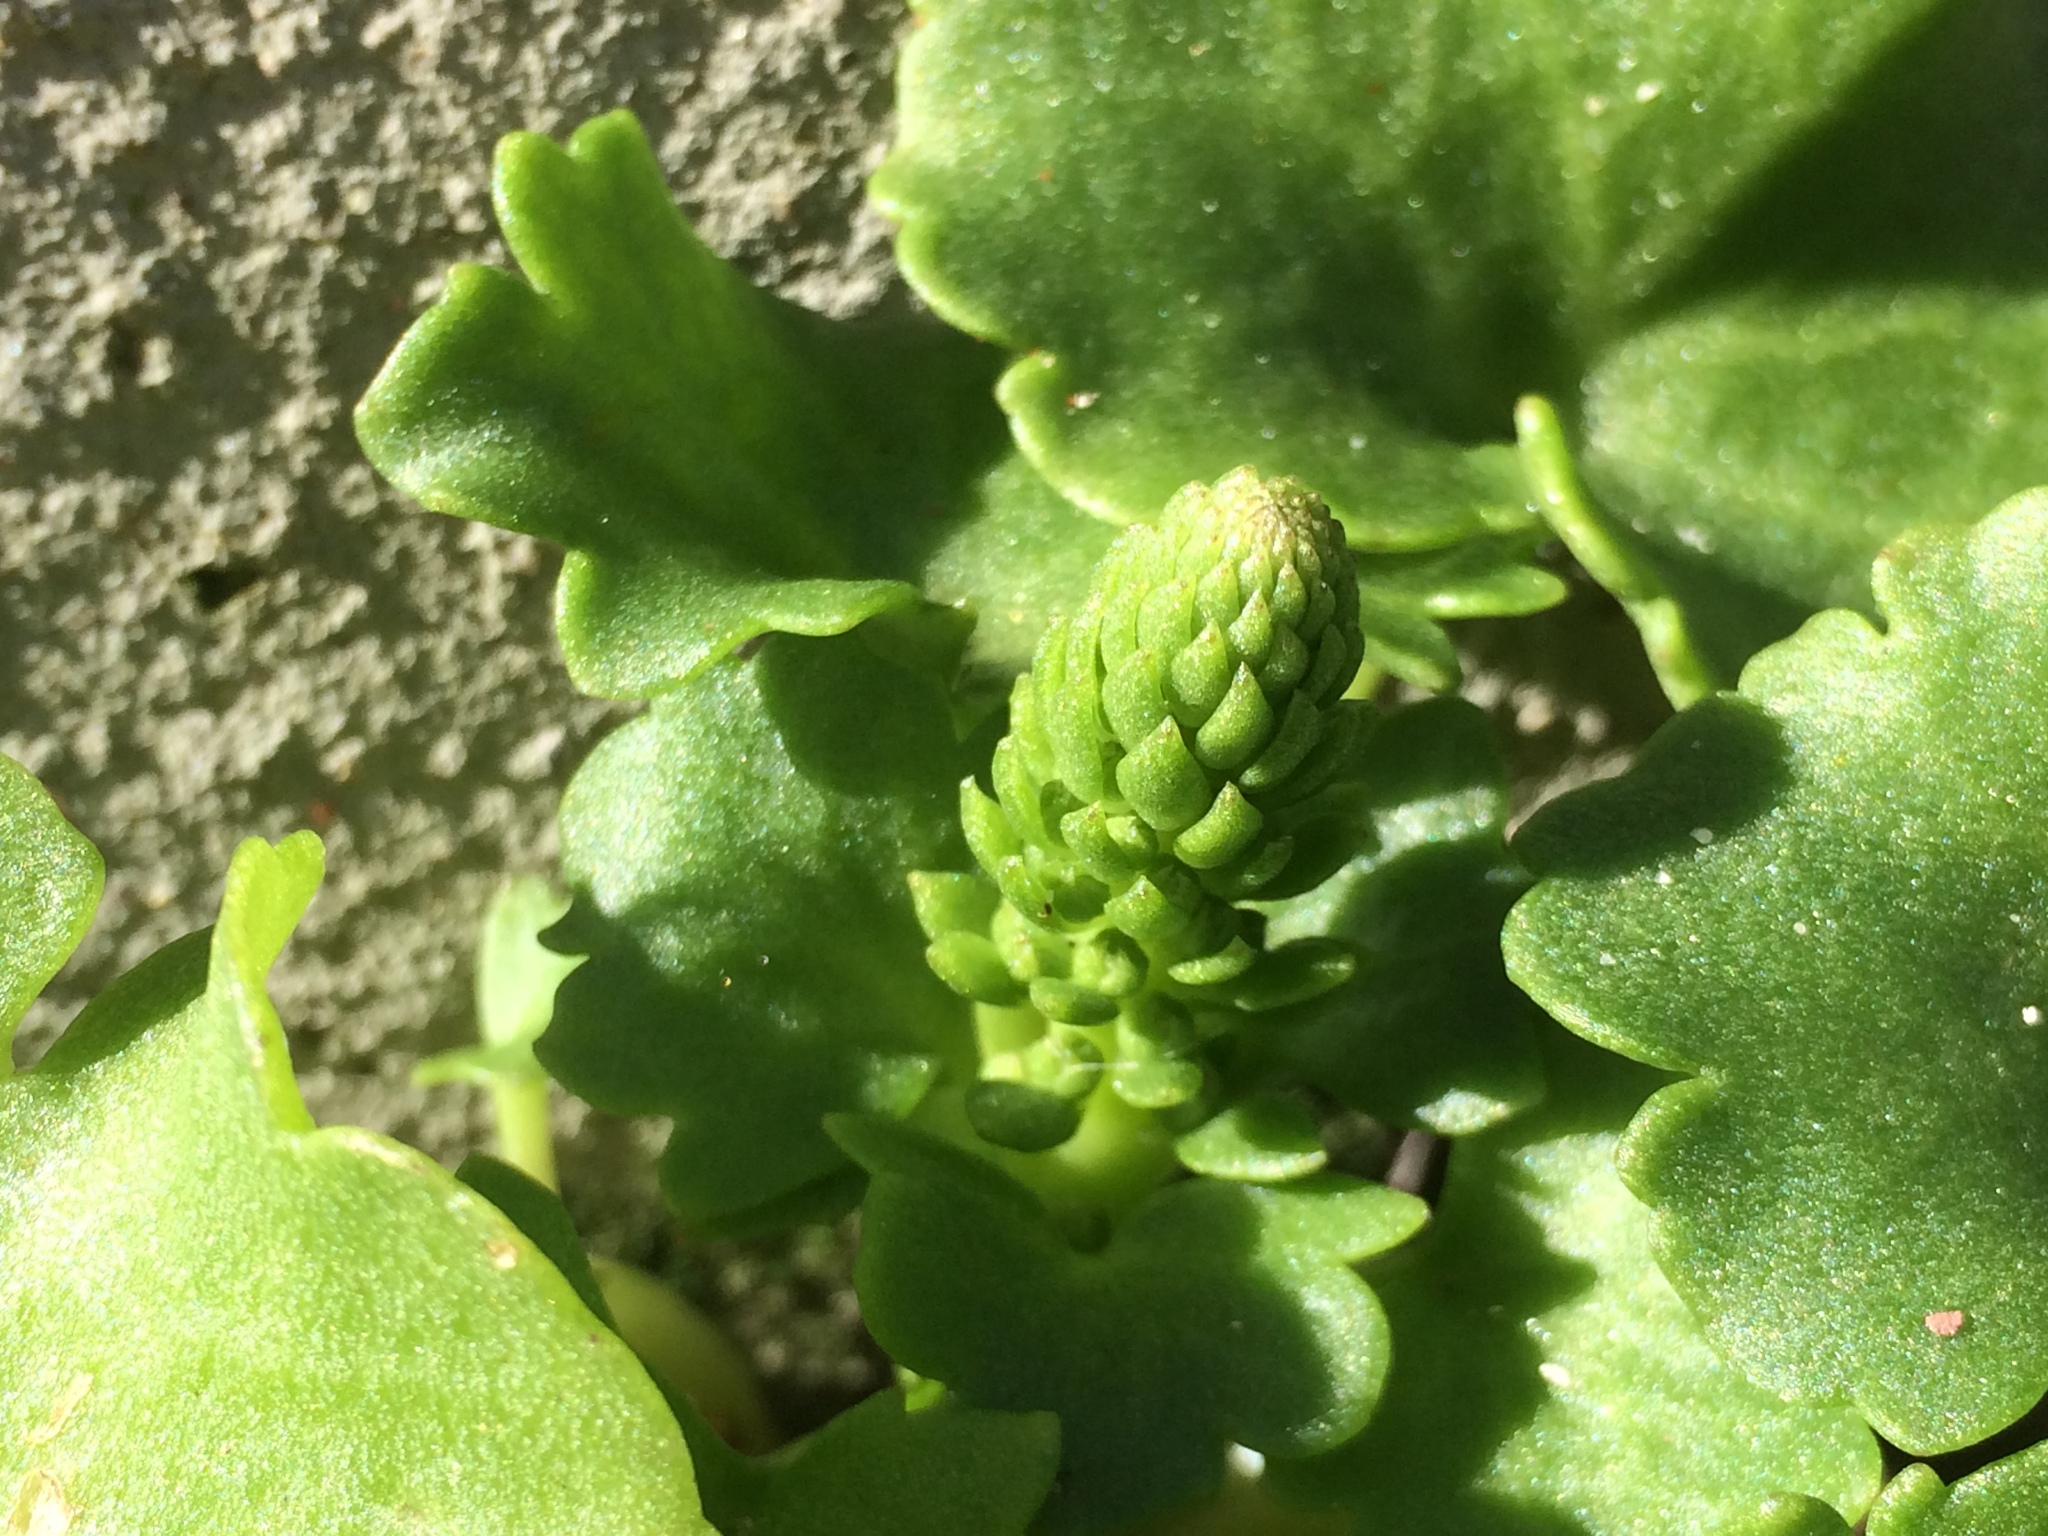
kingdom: Plantae
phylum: Tracheophyta
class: Magnoliopsida
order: Saxifragales
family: Crassulaceae
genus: Umbilicus
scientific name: Umbilicus rupestris
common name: Navelwort
